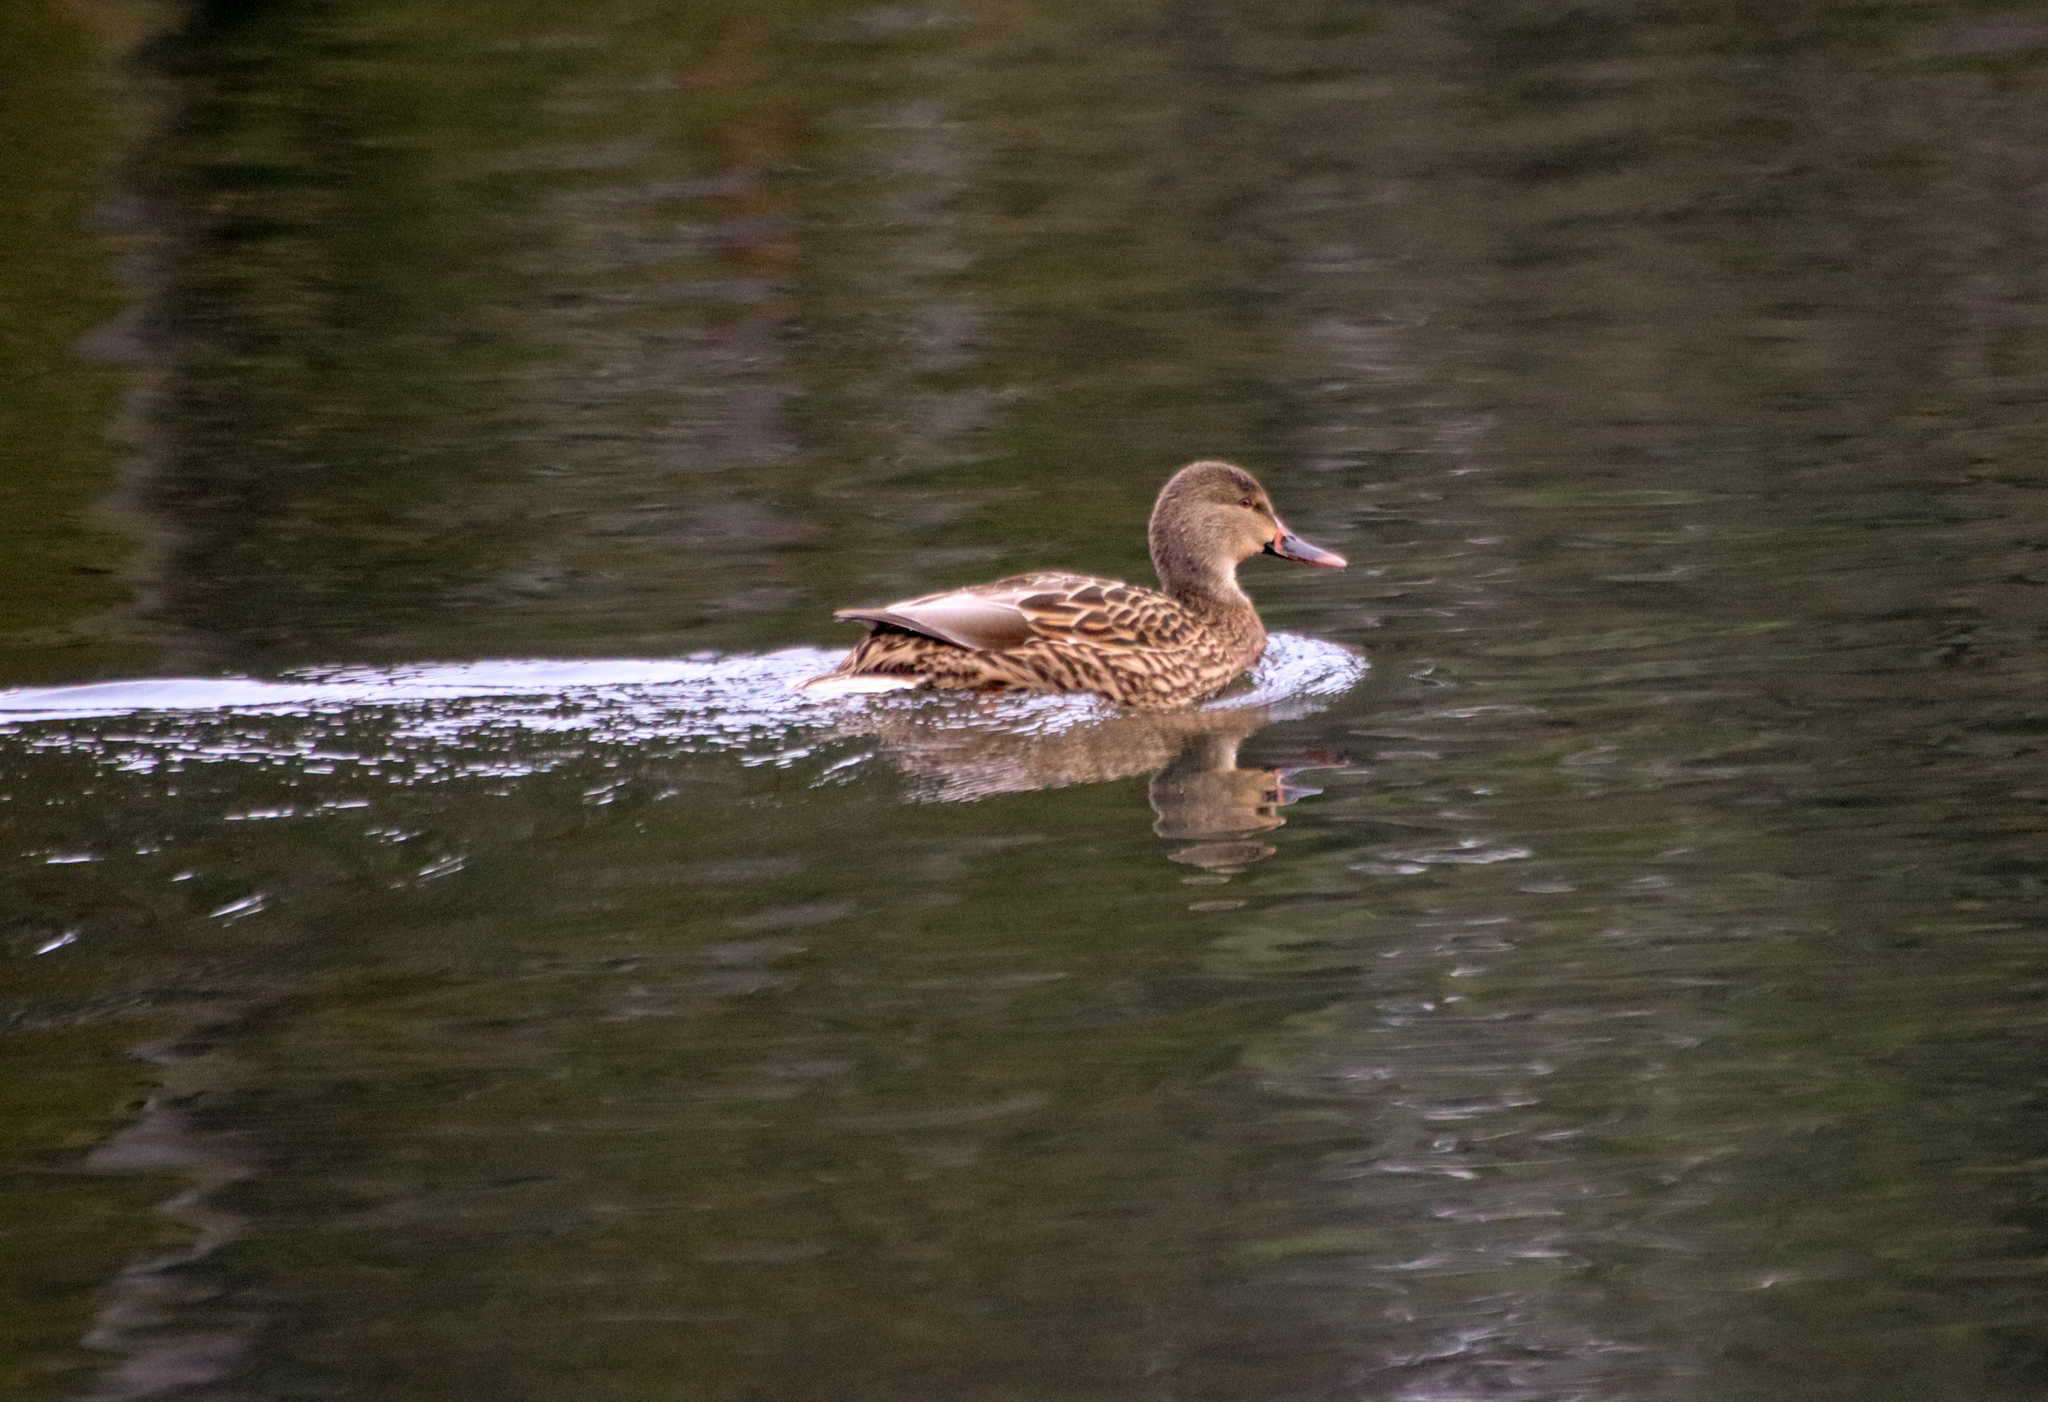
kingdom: Animalia
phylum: Chordata
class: Aves
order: Anseriformes
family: Anatidae
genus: Anas
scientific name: Anas platyrhynchos
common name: Mallard
